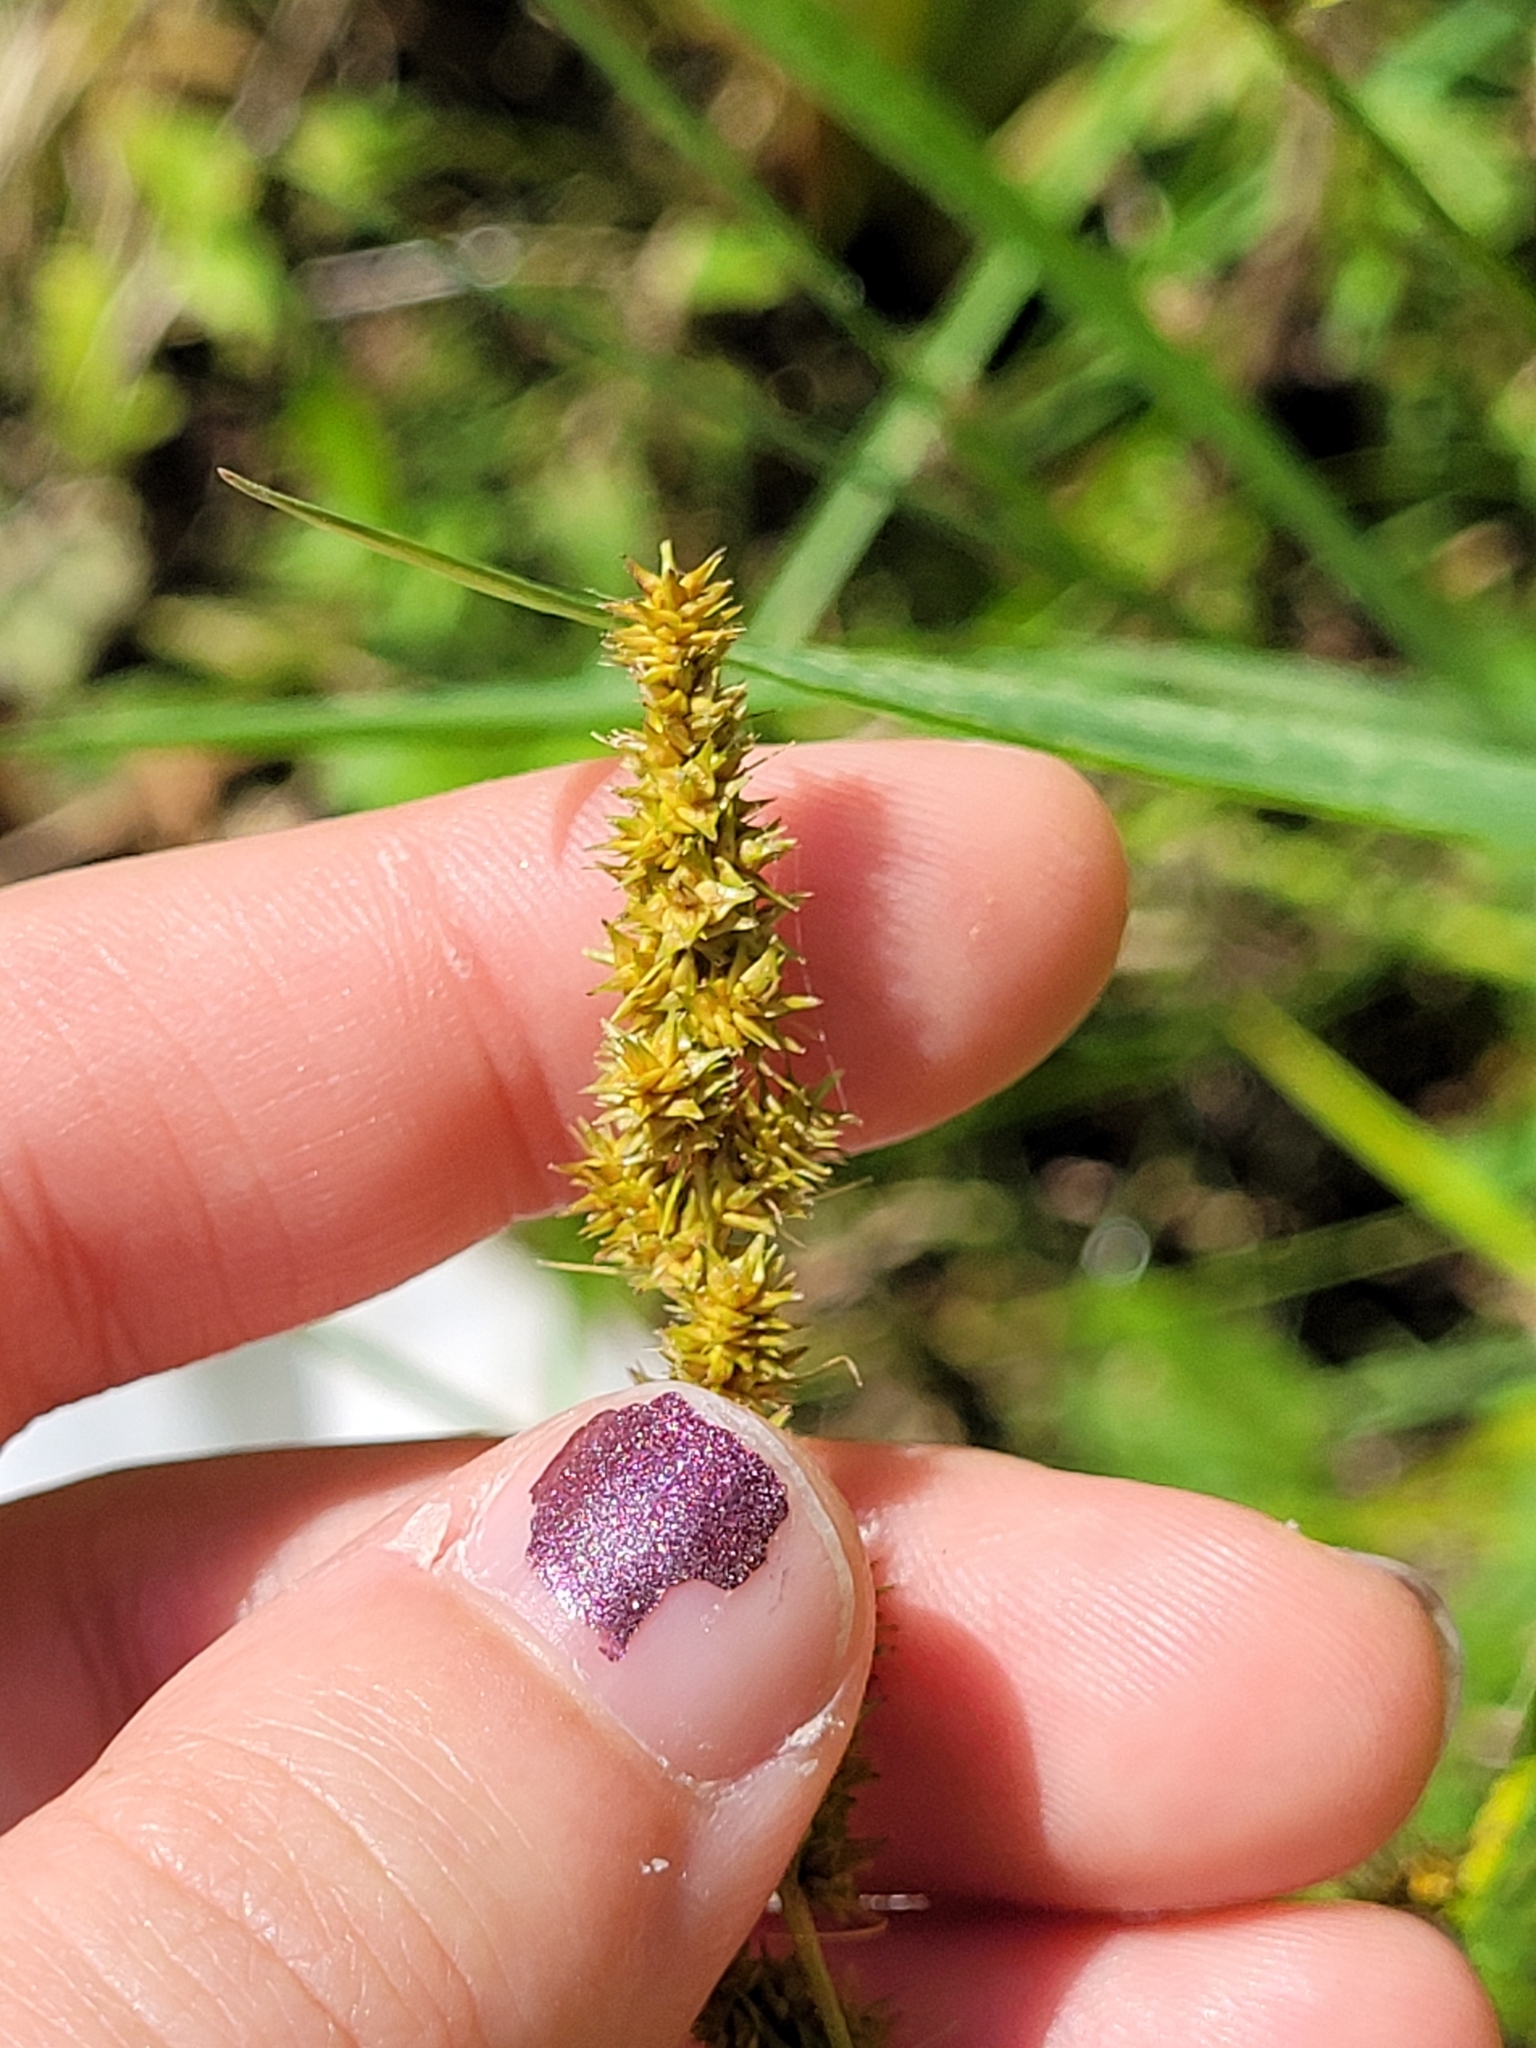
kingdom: Plantae
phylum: Tracheophyta
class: Liliopsida
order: Poales
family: Cyperaceae
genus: Carex
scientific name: Carex vulpinoidea
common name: American fox-sedge
